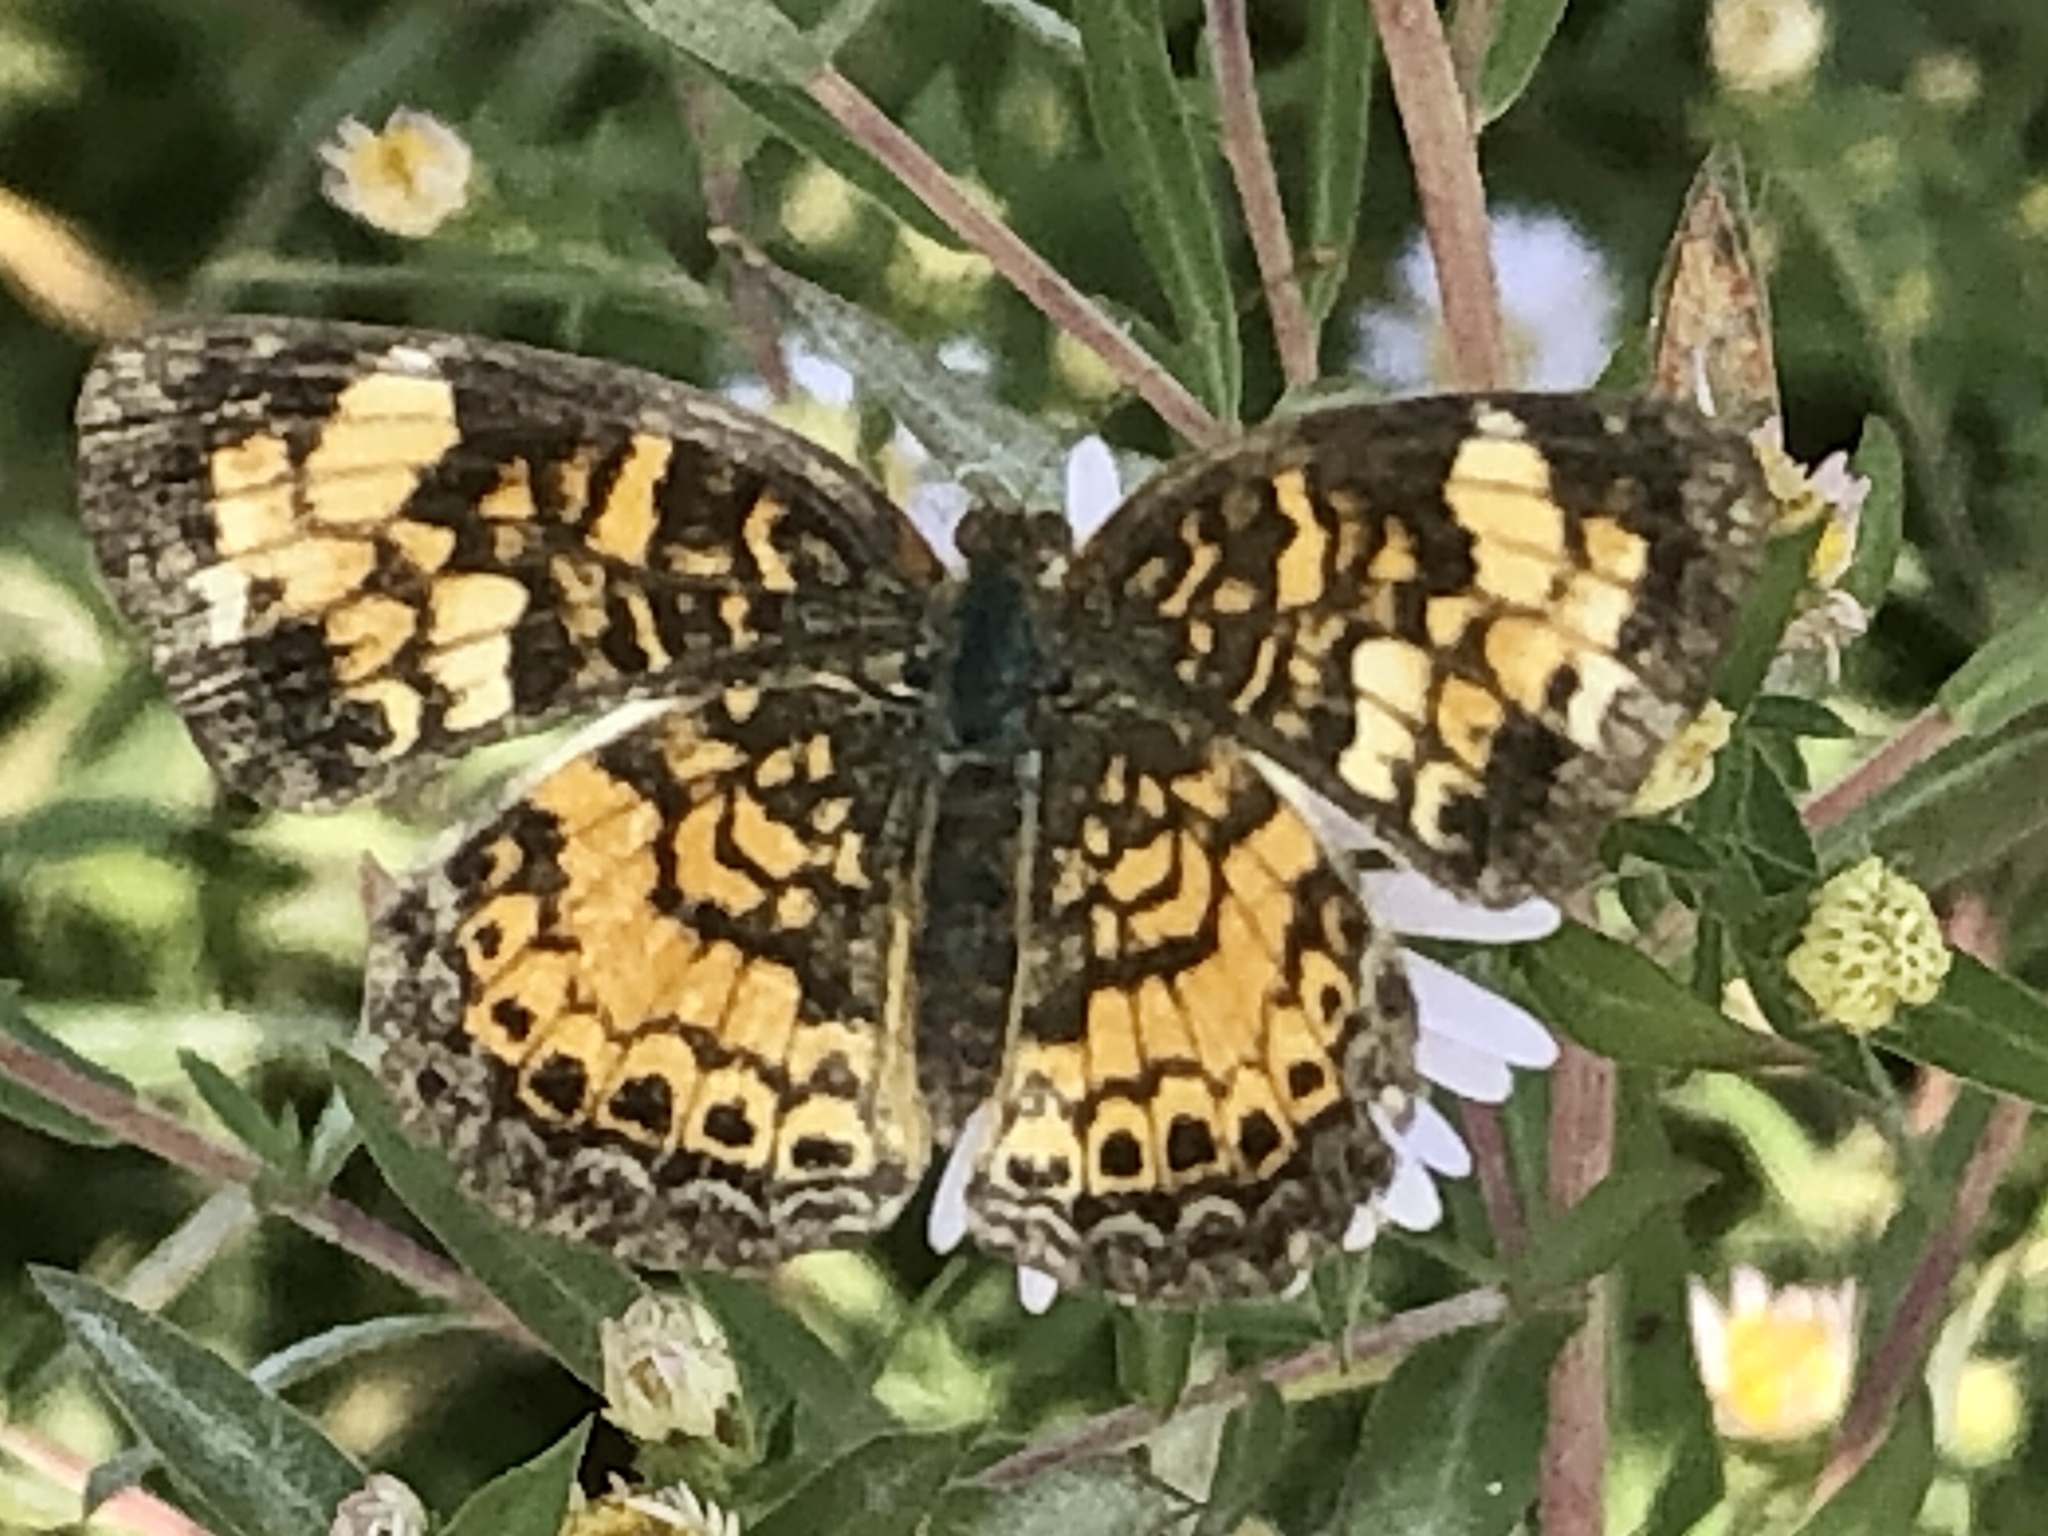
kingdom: Animalia
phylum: Arthropoda
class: Insecta
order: Lepidoptera
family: Nymphalidae
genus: Phyciodes
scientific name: Phyciodes tharos
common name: Pearl crescent
